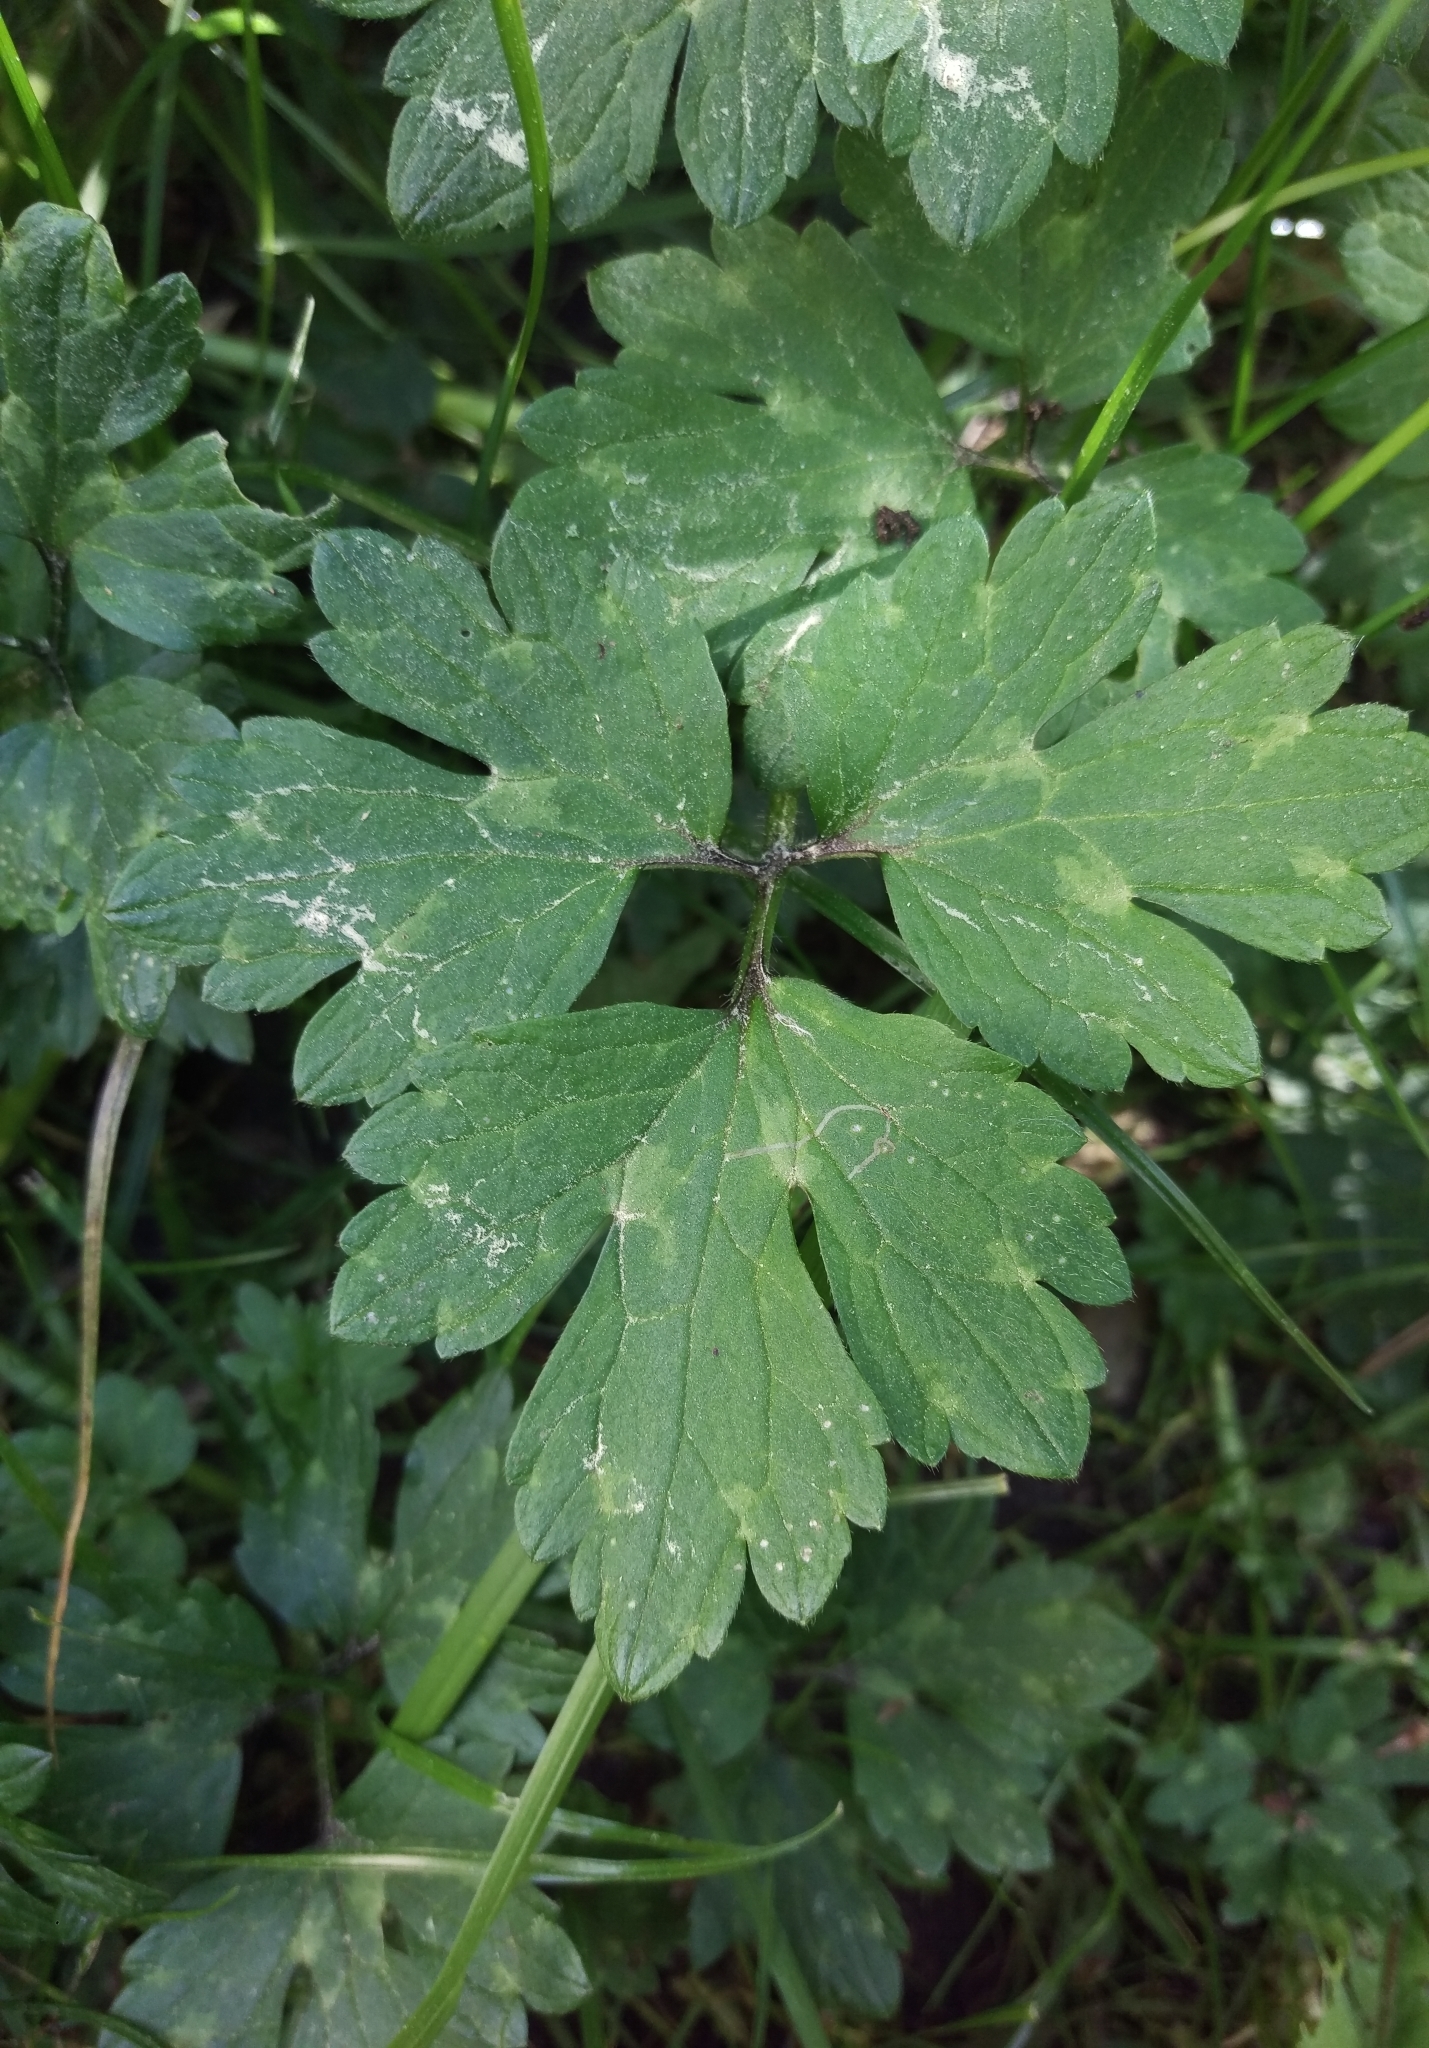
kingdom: Plantae
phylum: Tracheophyta
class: Magnoliopsida
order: Ranunculales
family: Ranunculaceae
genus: Ranunculus
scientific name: Ranunculus repens
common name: Creeping buttercup
